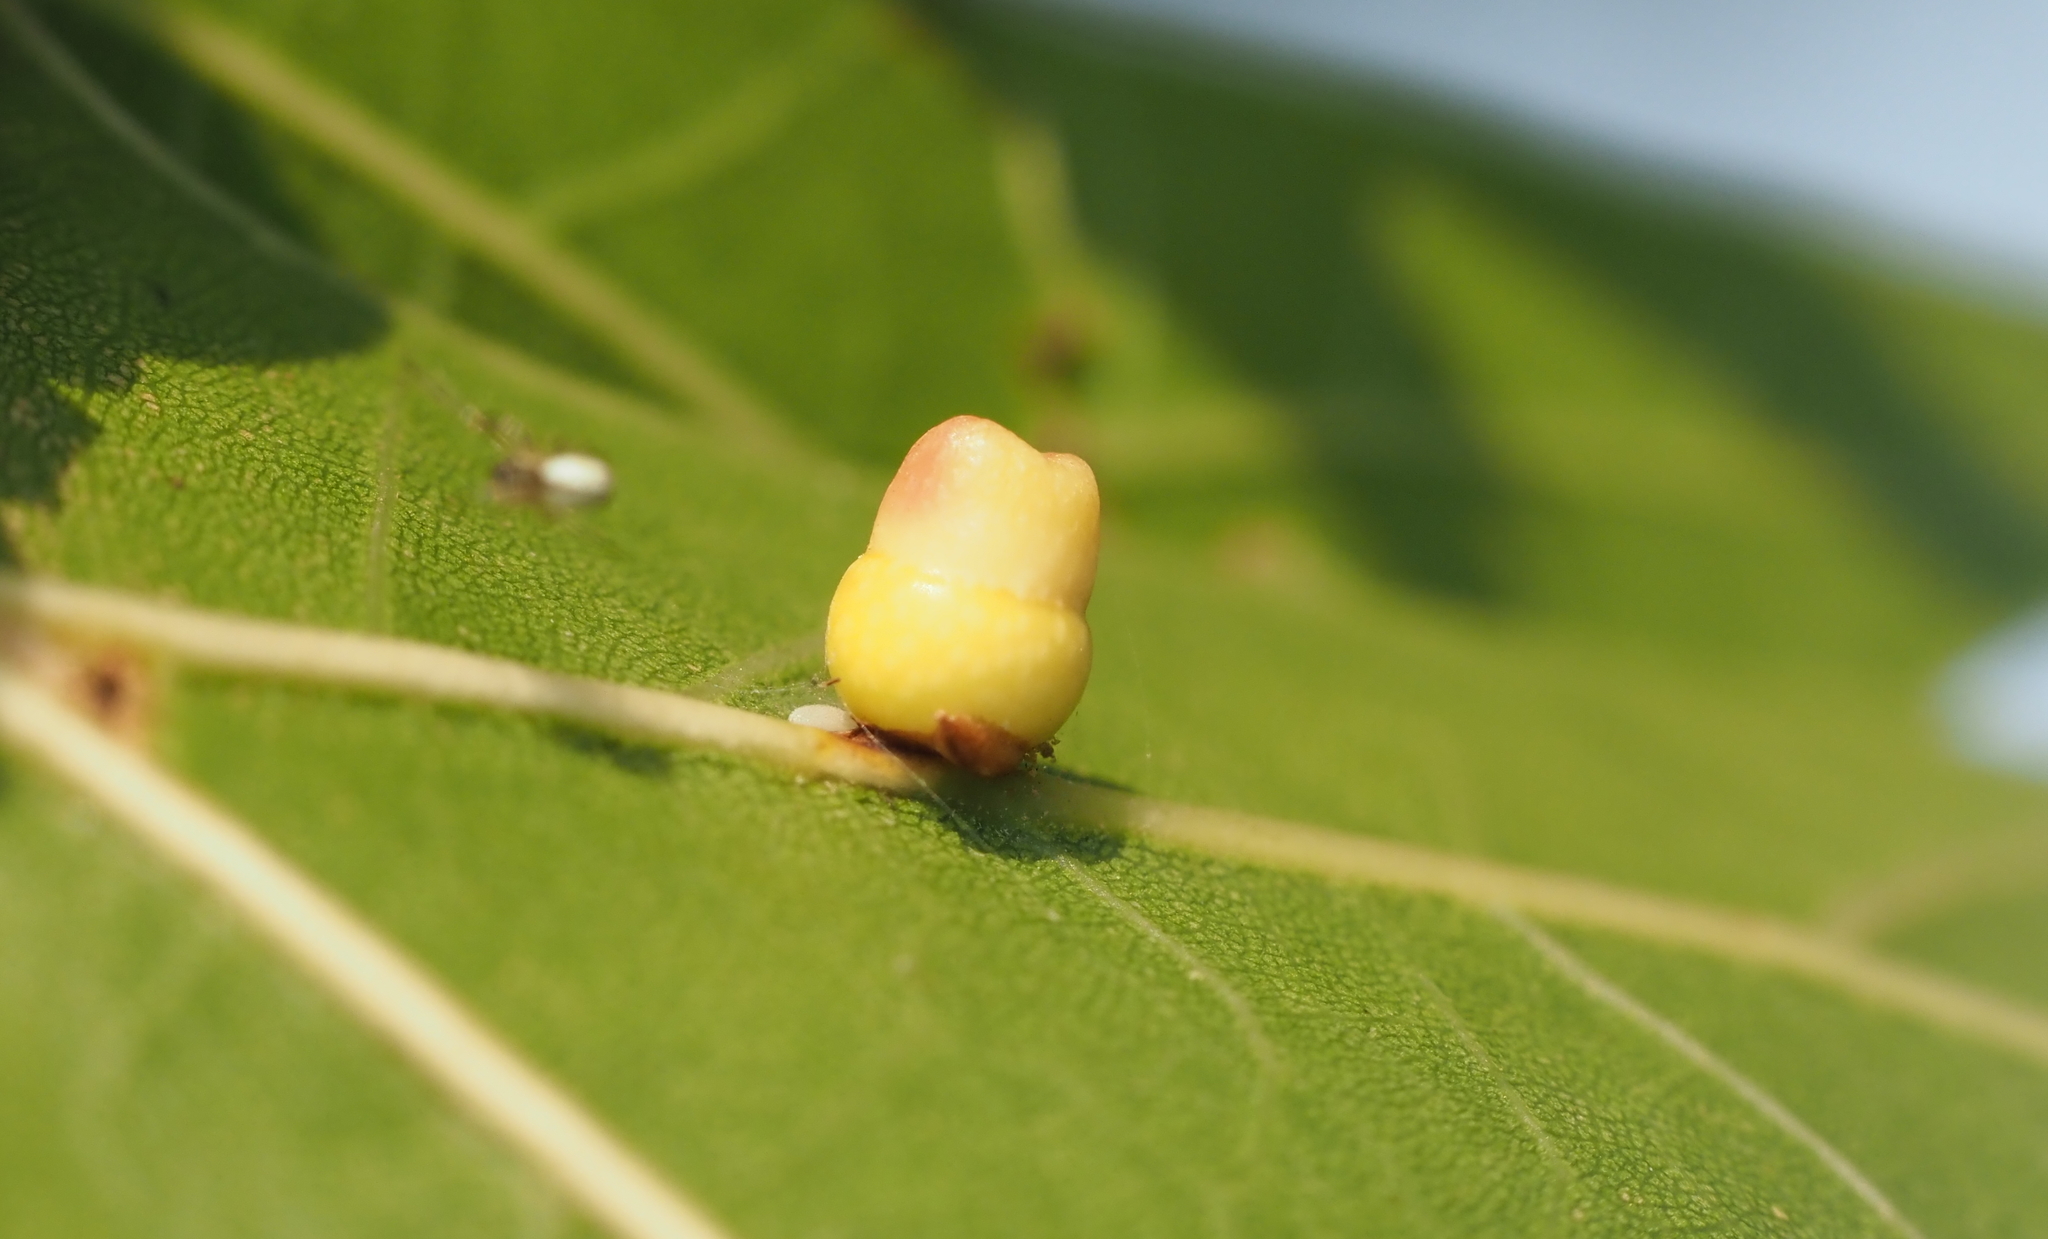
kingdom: Animalia
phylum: Arthropoda
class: Insecta
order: Hymenoptera
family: Cynipidae
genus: Kokkocynips
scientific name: Kokkocynips rileyi
